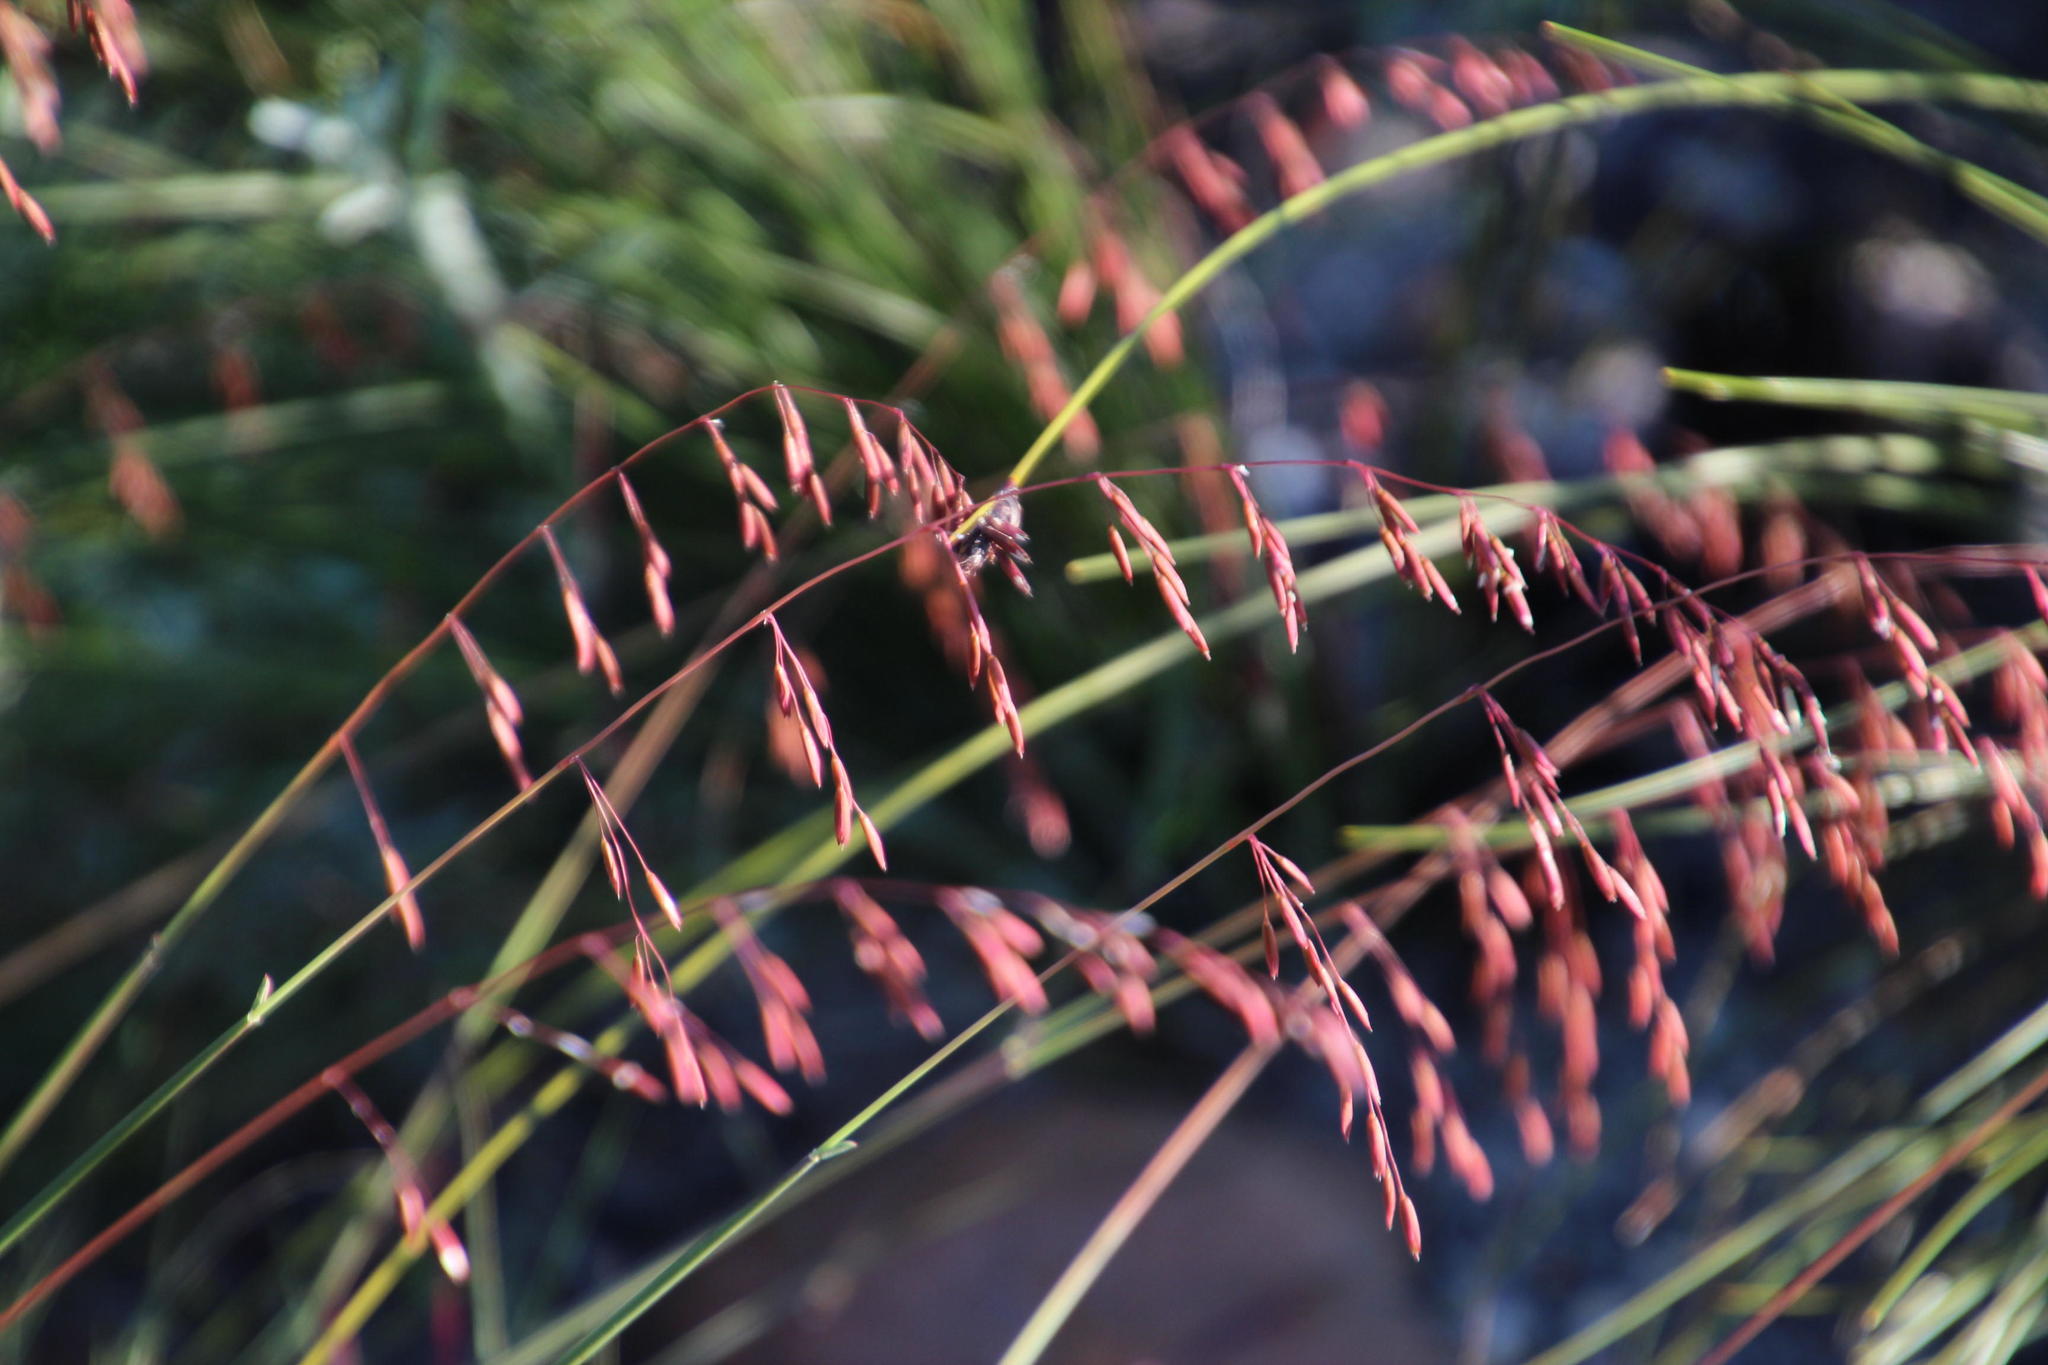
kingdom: Plantae
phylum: Tracheophyta
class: Liliopsida
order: Poales
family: Poaceae
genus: Ehrharta
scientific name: Ehrharta calycina
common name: Perennial veldtgrass
